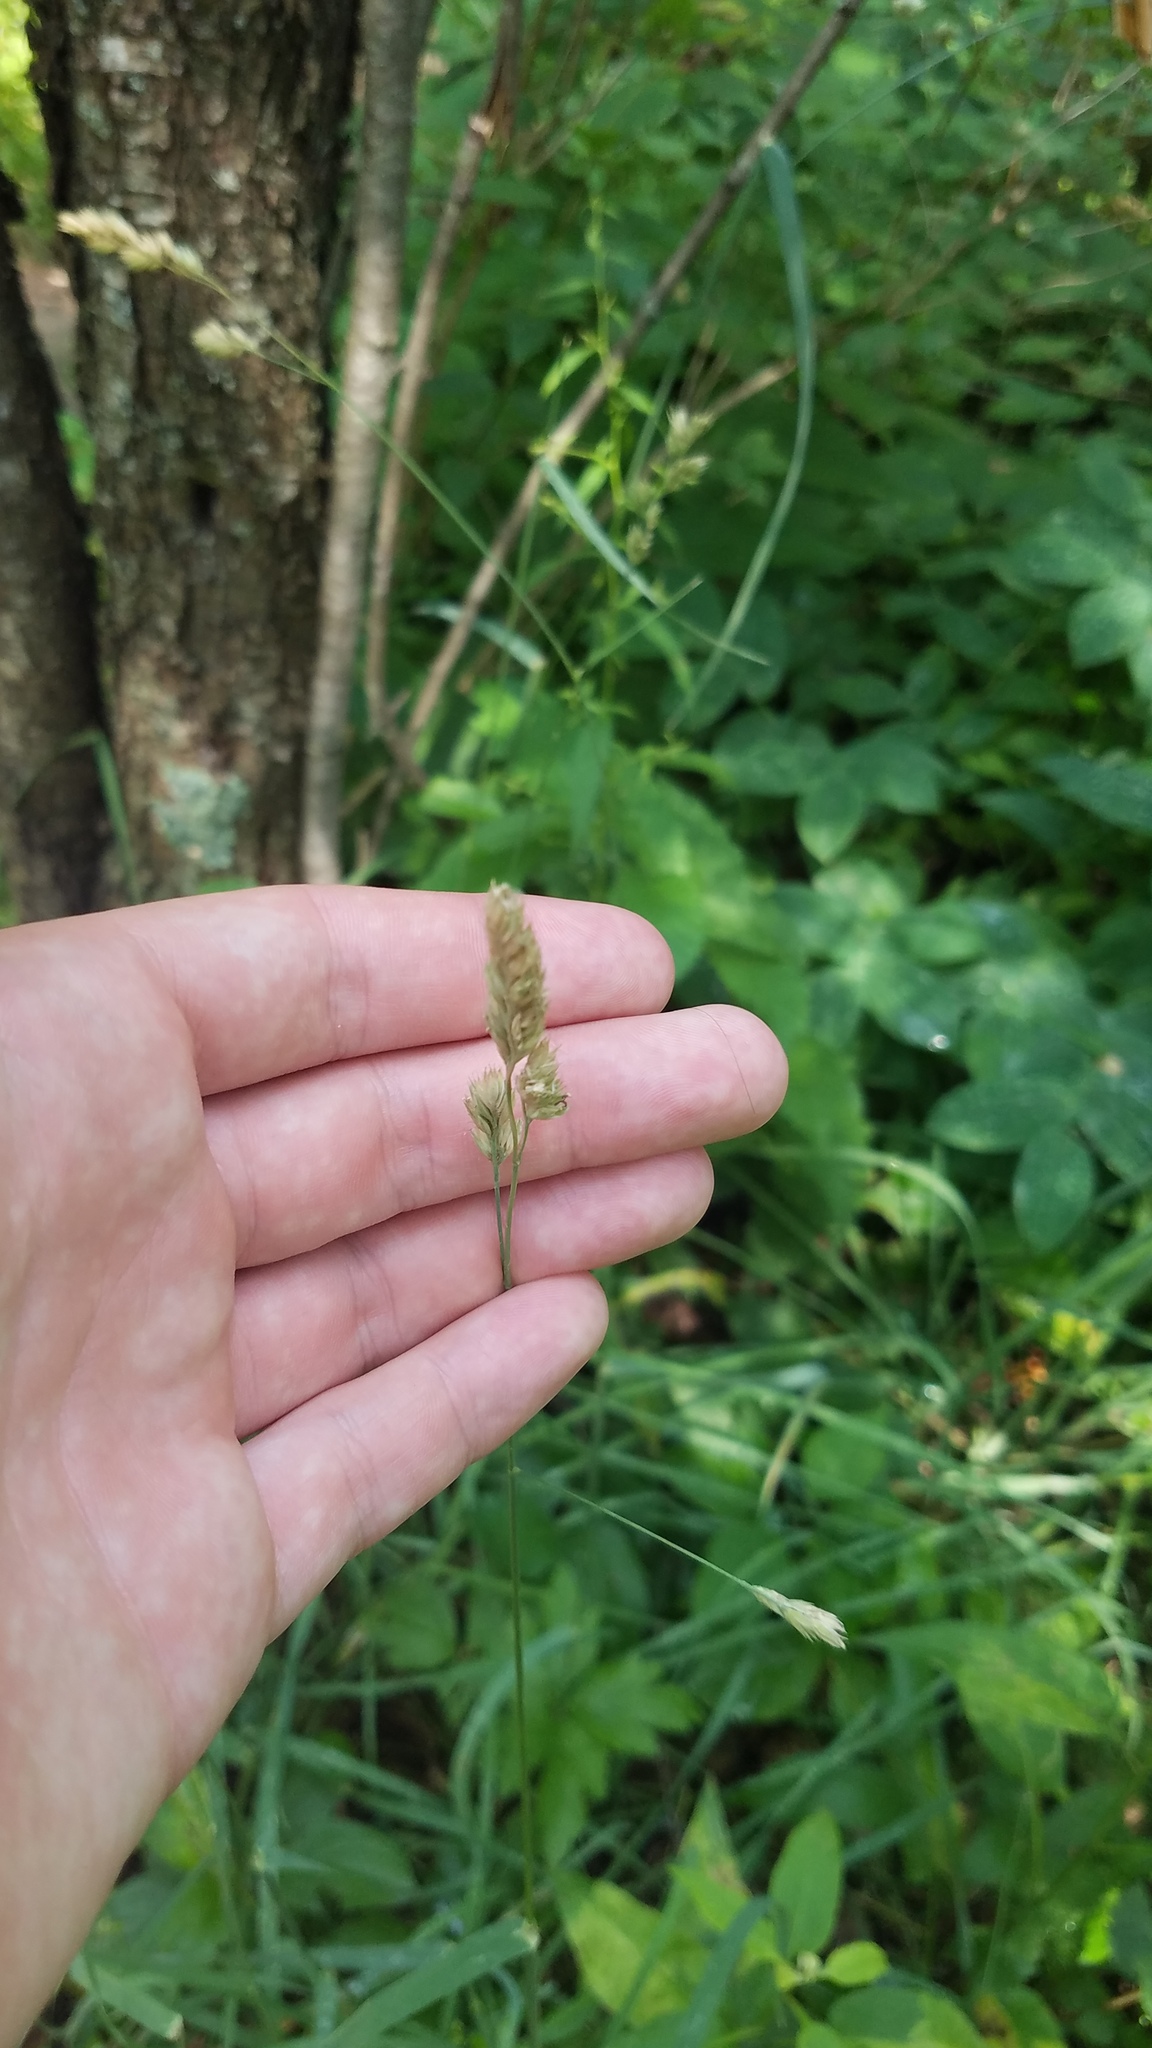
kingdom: Plantae
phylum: Tracheophyta
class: Liliopsida
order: Poales
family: Poaceae
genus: Dactylis
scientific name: Dactylis glomerata
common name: Orchardgrass
